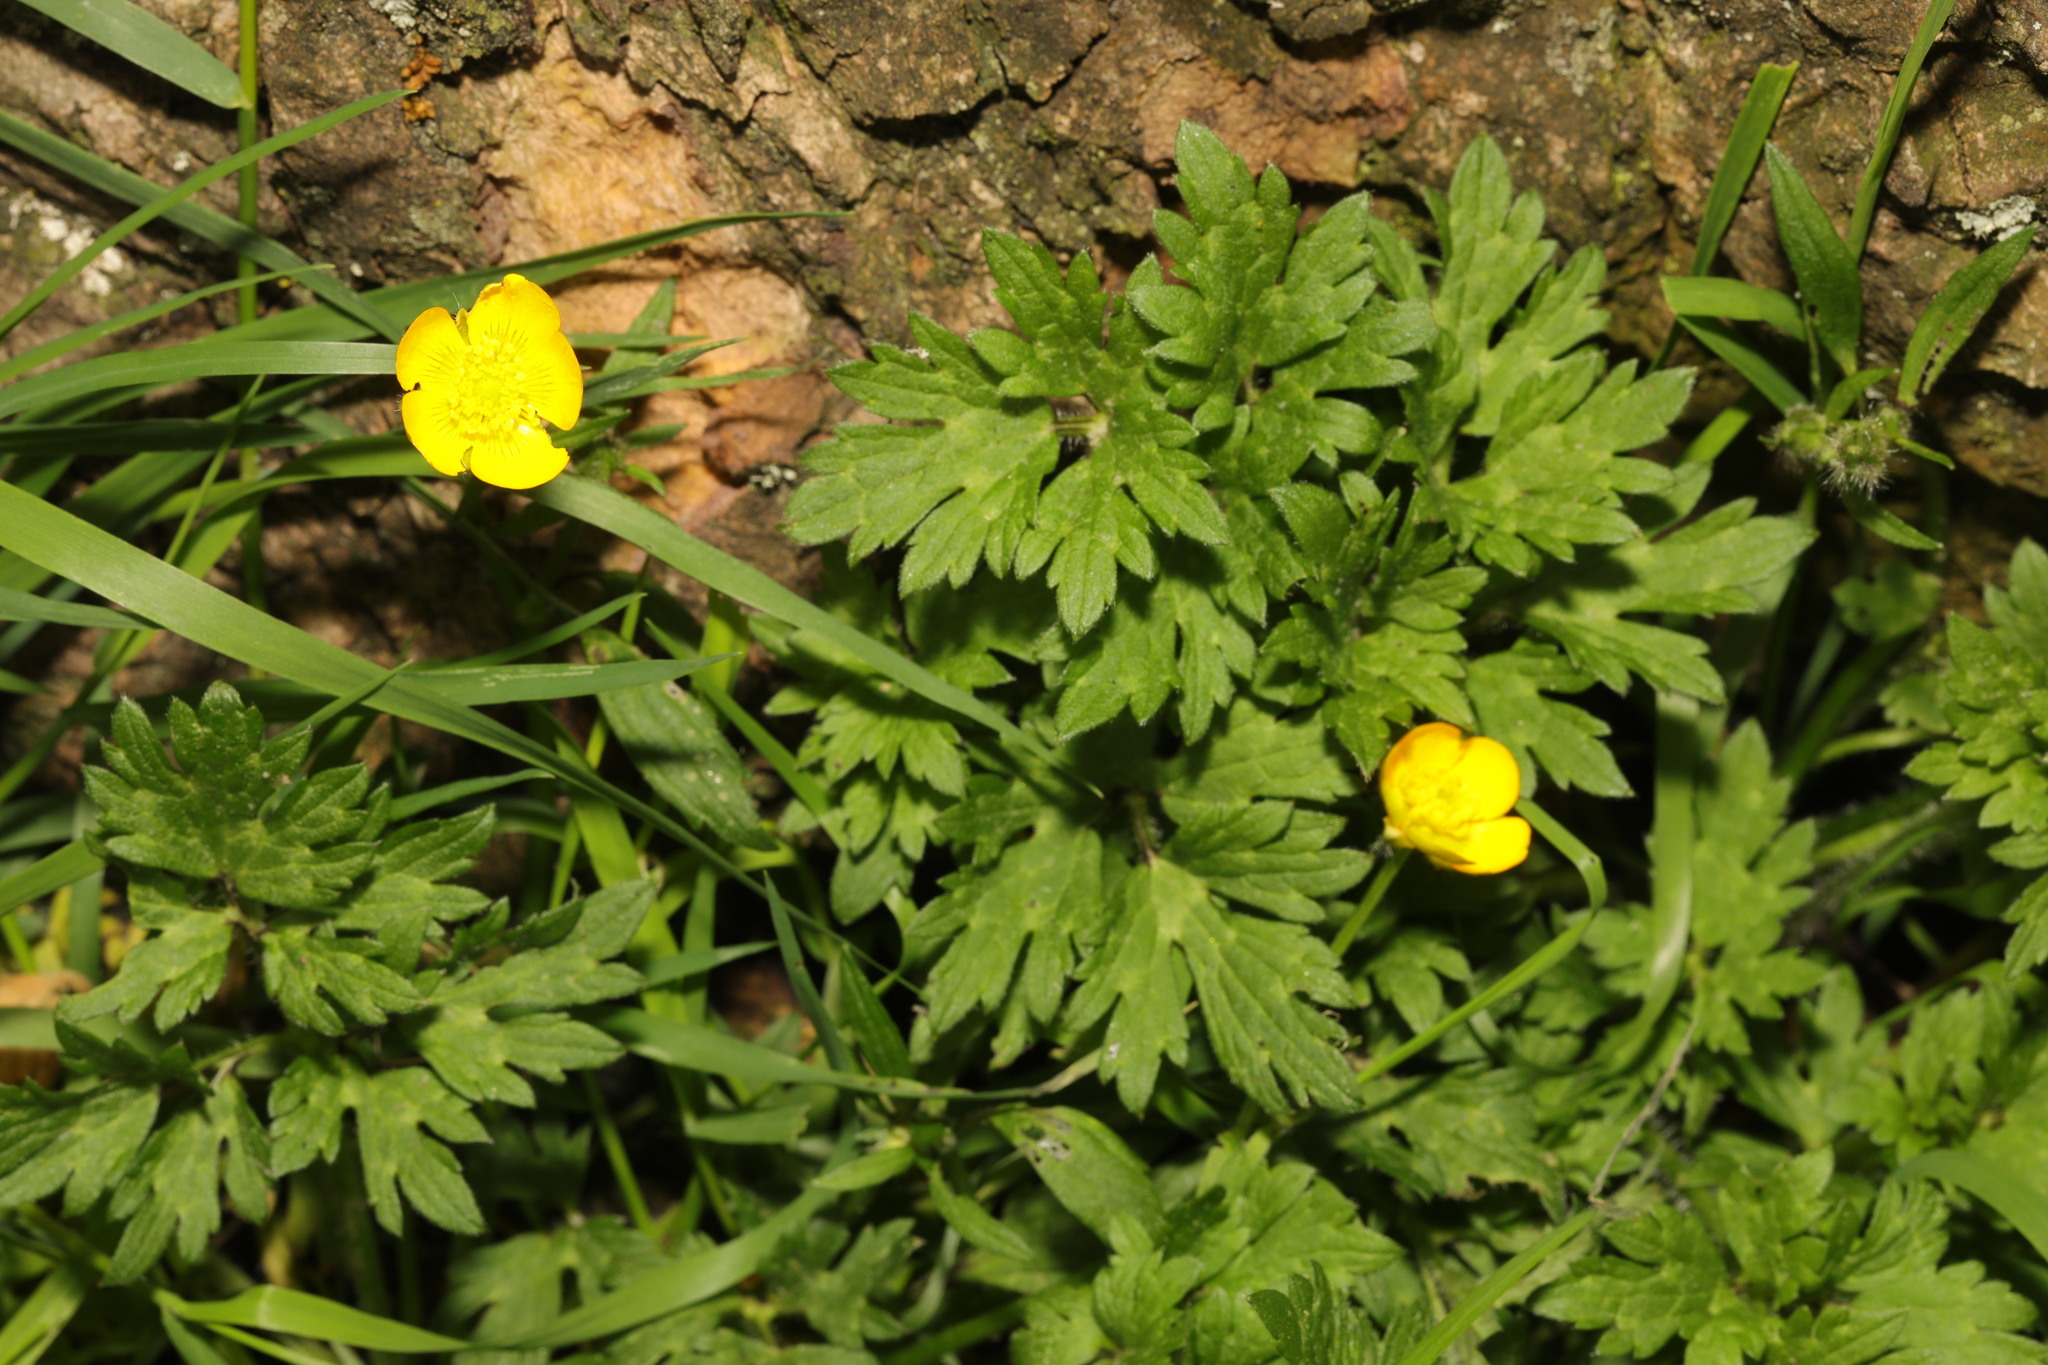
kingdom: Plantae
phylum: Tracheophyta
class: Magnoliopsida
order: Ranunculales
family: Ranunculaceae
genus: Ranunculus
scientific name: Ranunculus repens
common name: Creeping buttercup
